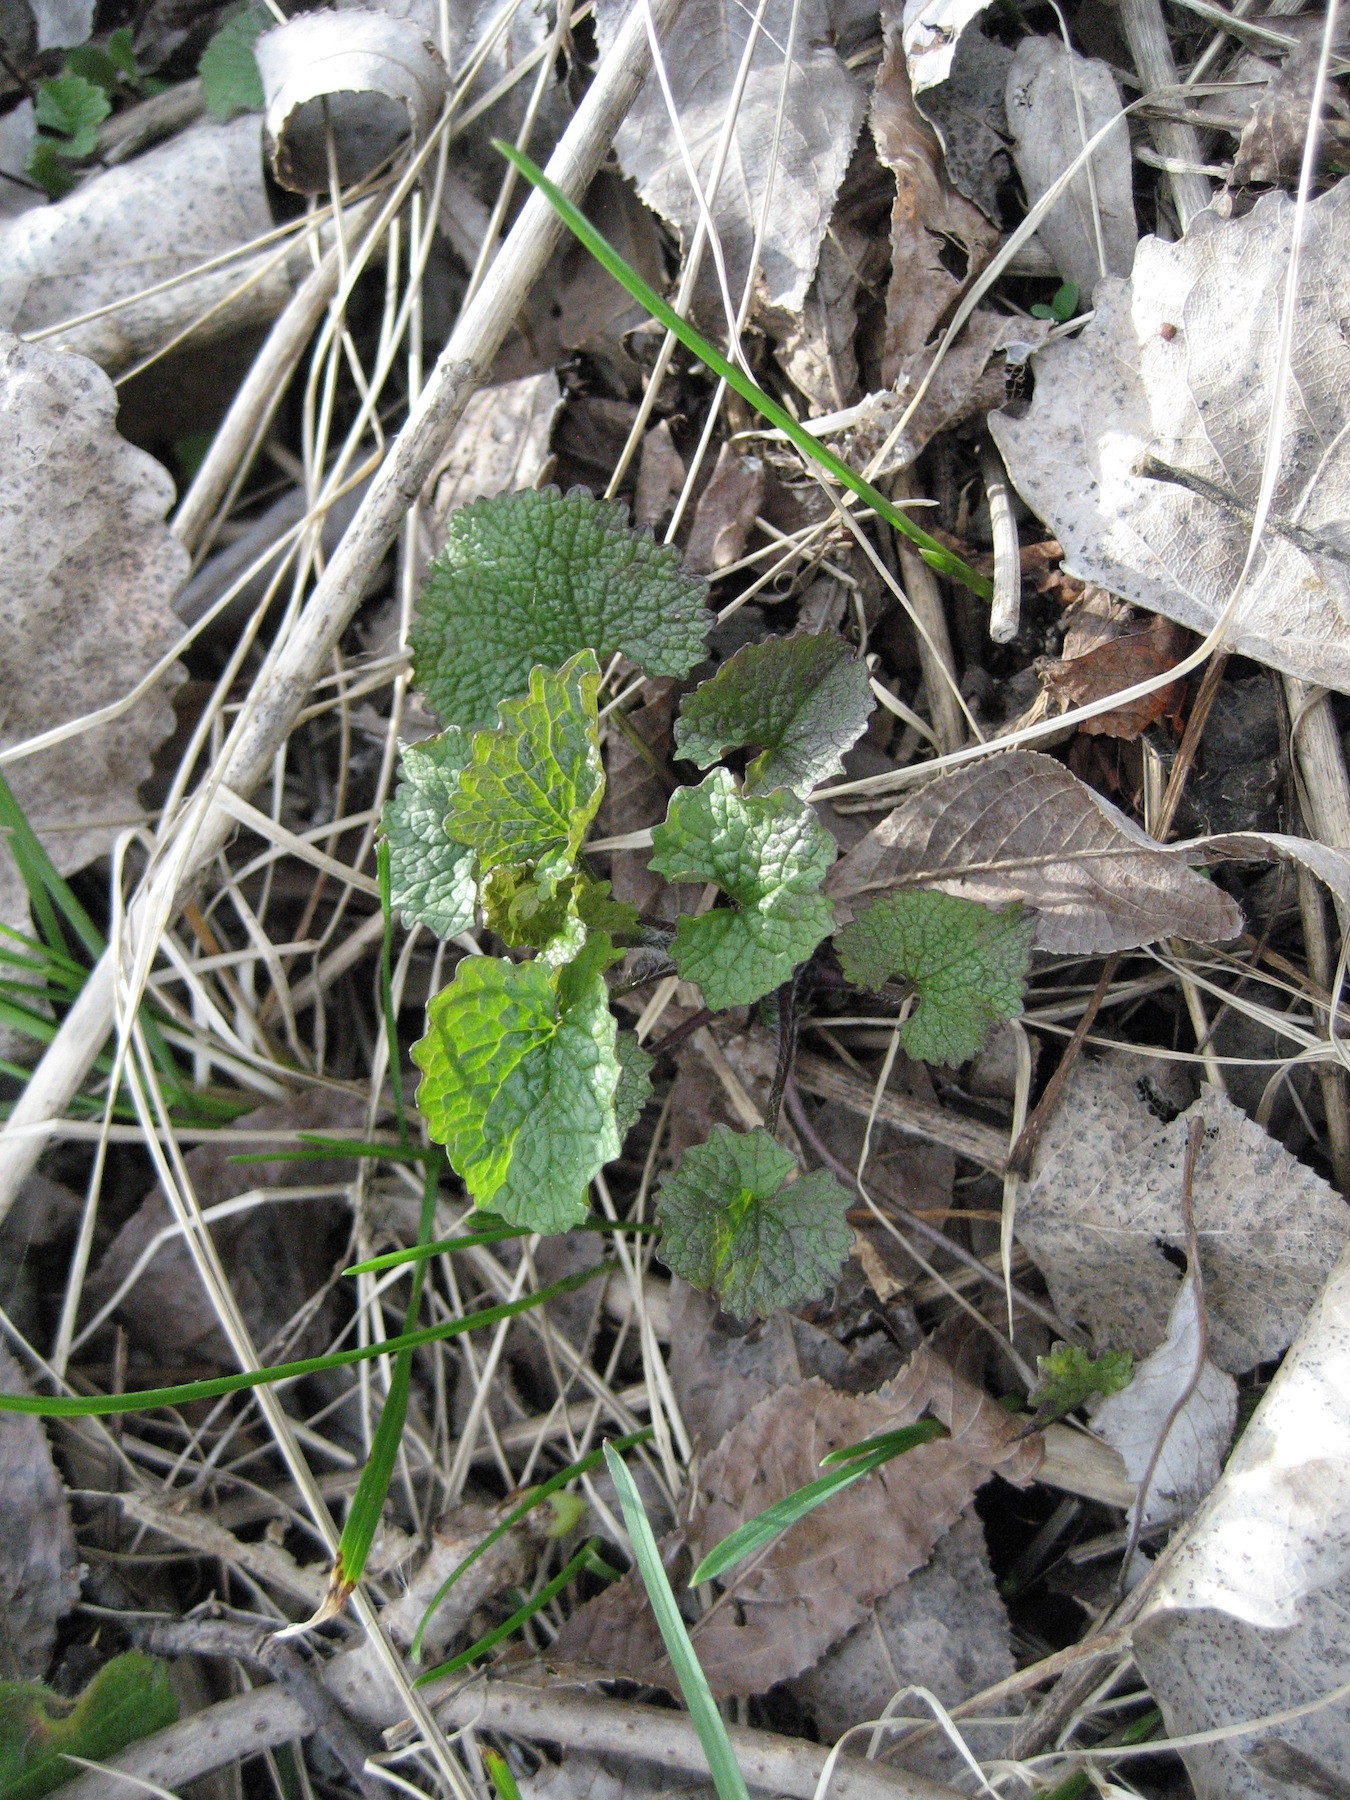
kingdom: Plantae
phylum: Tracheophyta
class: Magnoliopsida
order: Brassicales
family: Brassicaceae
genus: Alliaria
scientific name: Alliaria petiolata
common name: Garlic mustard
